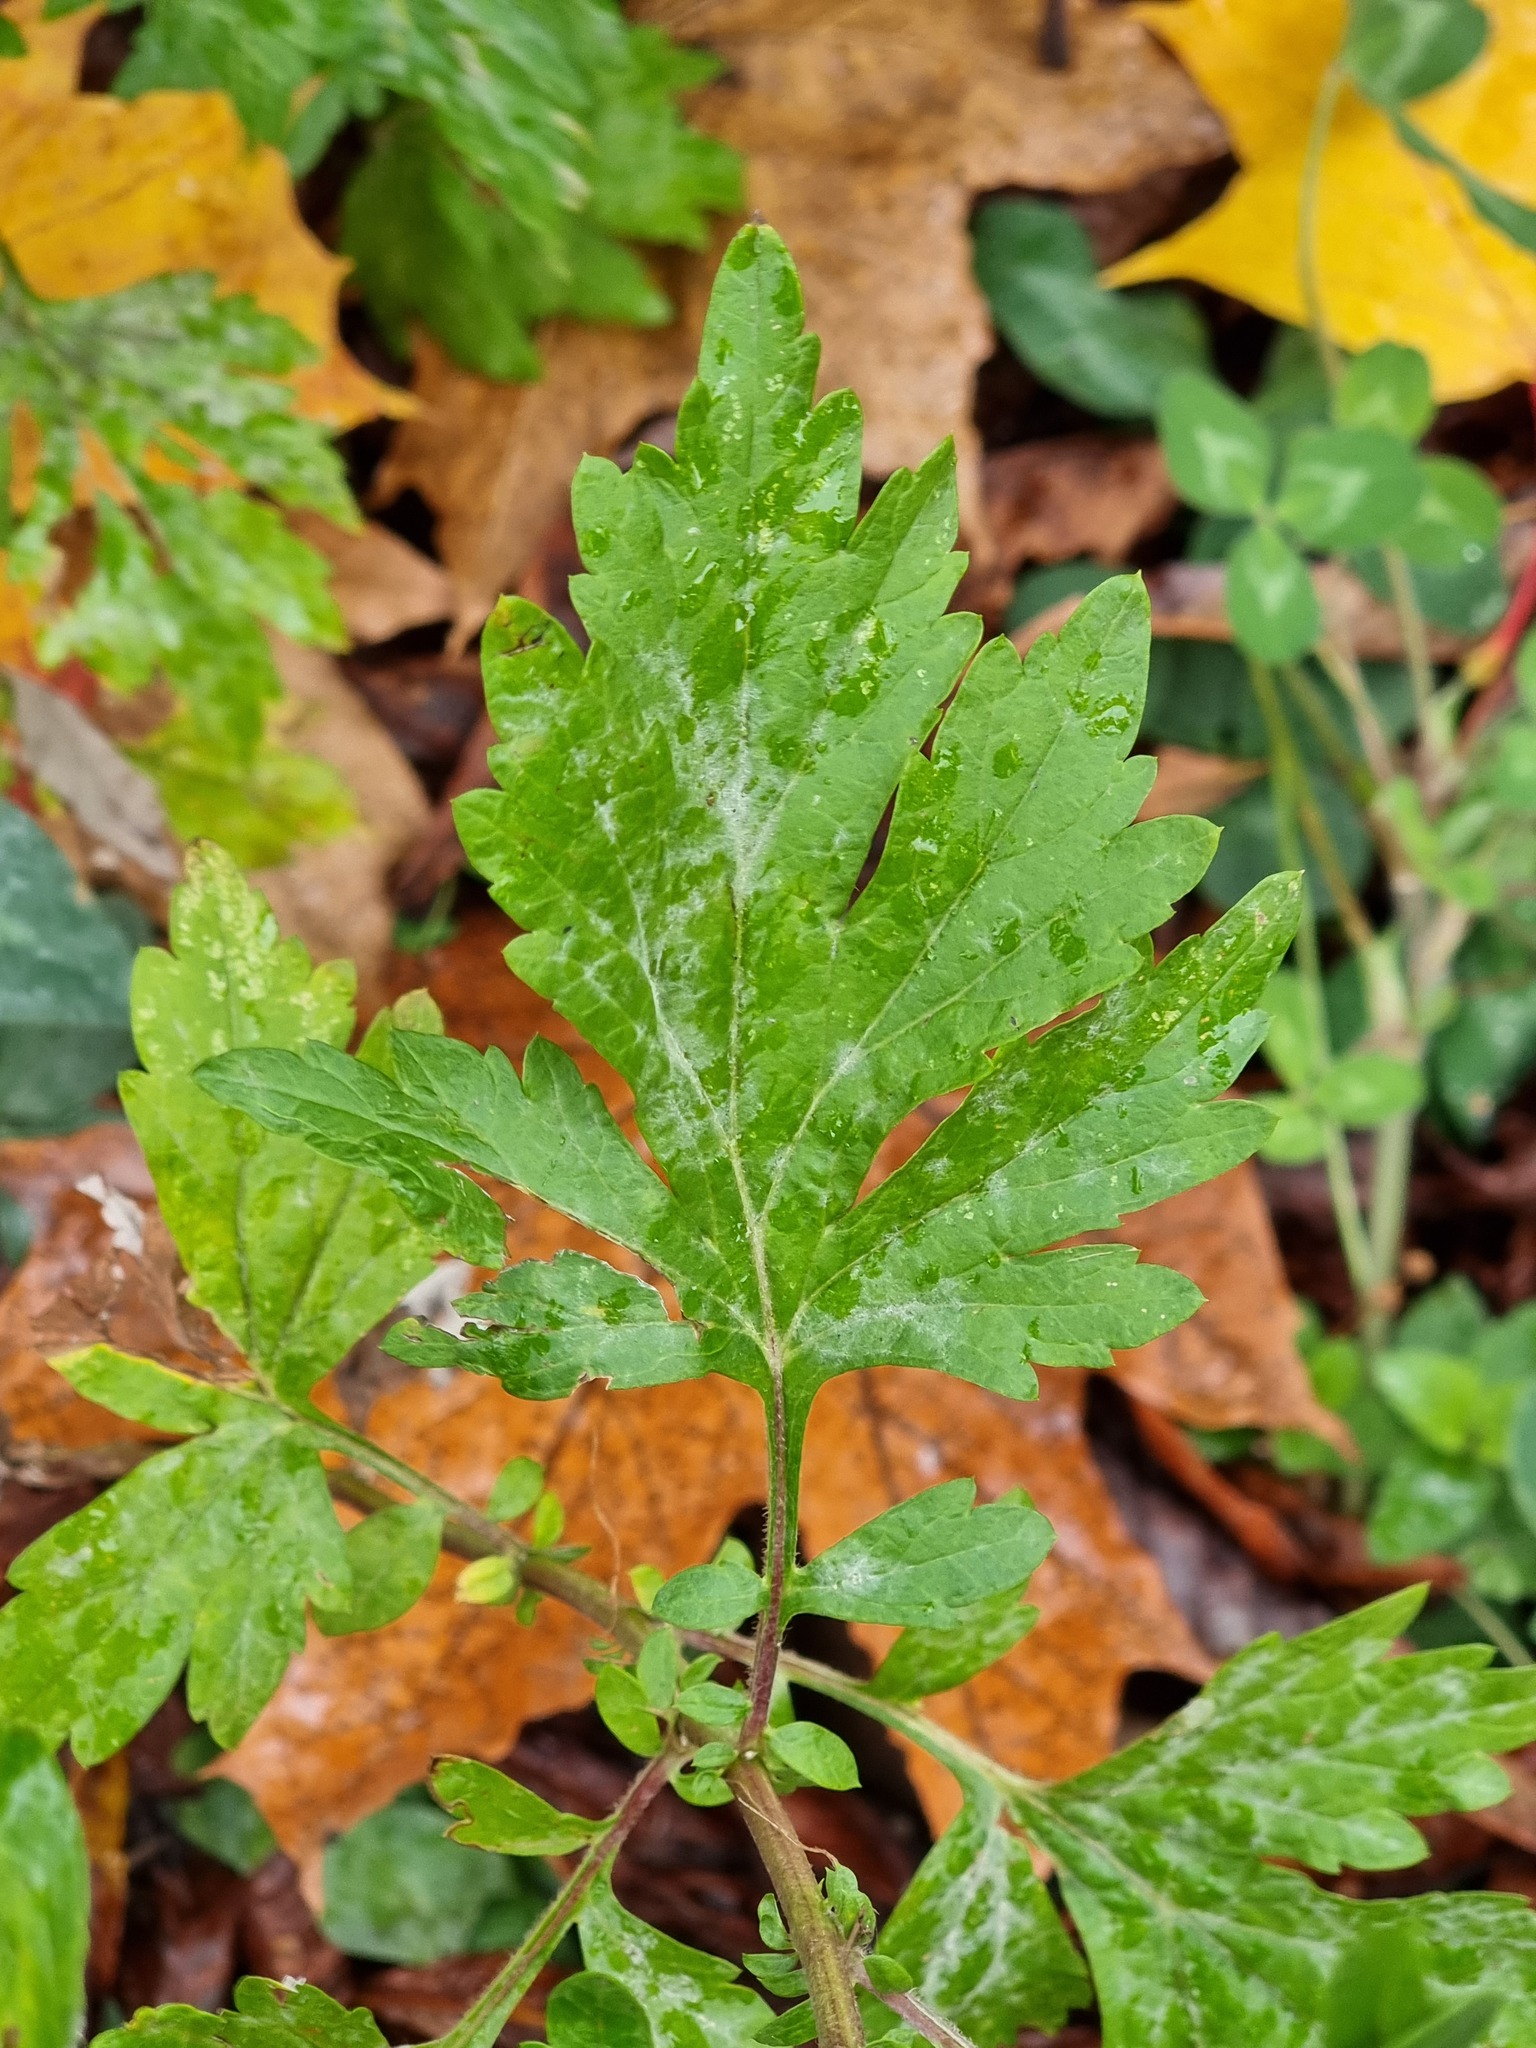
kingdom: Plantae
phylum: Tracheophyta
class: Magnoliopsida
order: Asterales
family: Asteraceae
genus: Artemisia
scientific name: Artemisia vulgaris
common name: Mugwort
